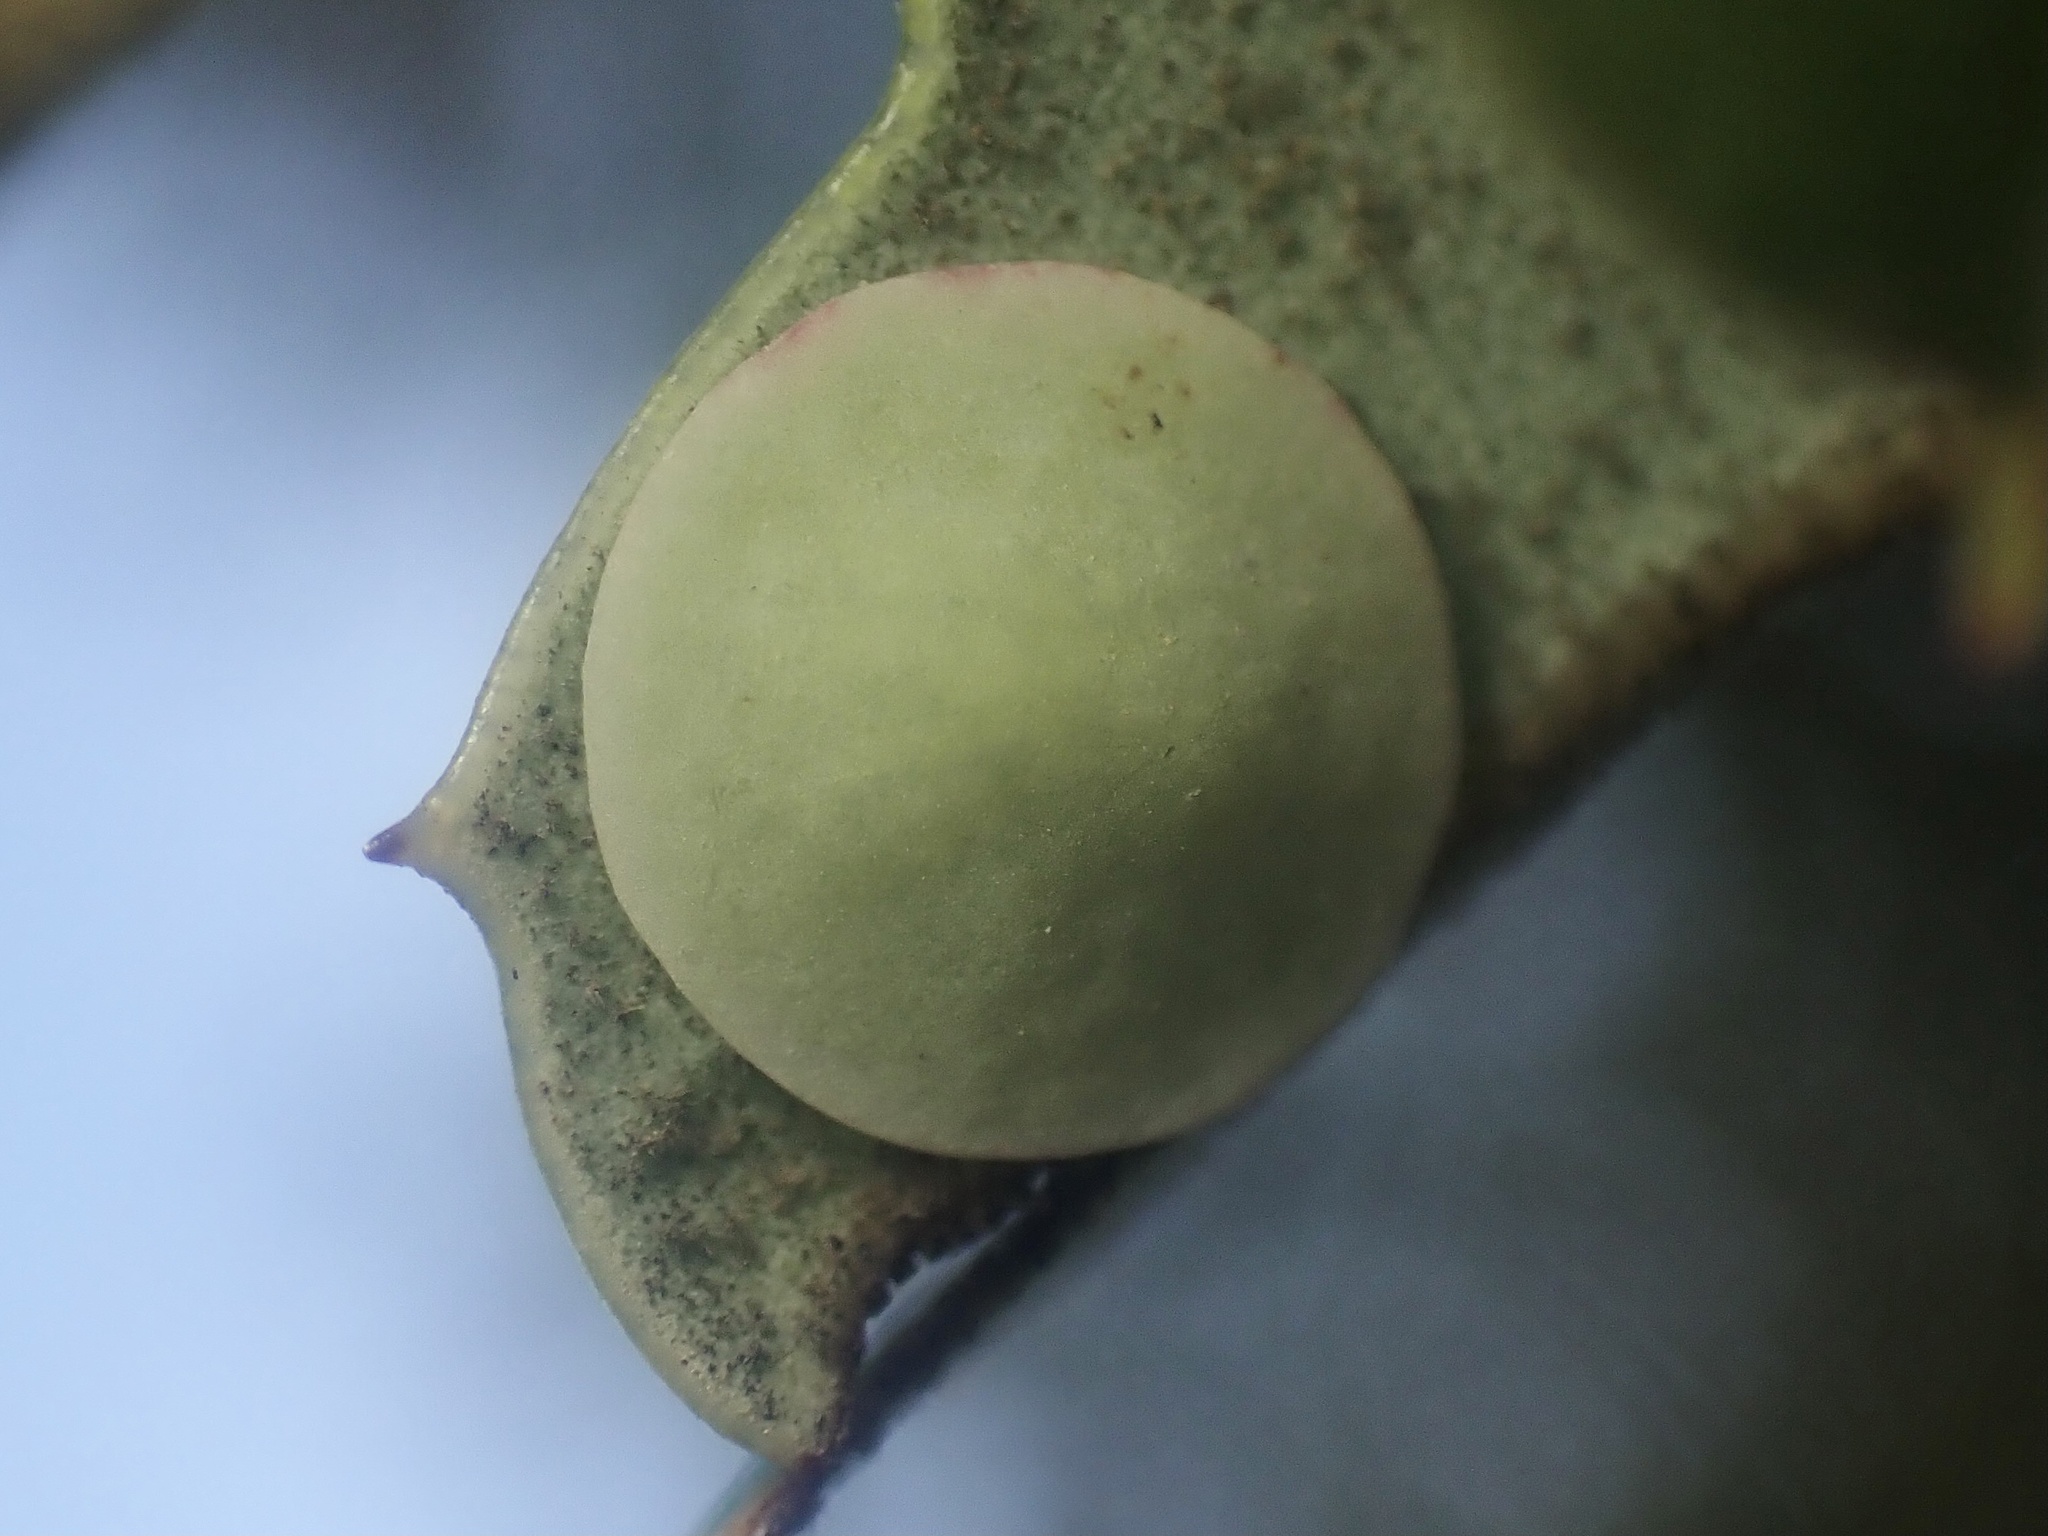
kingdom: Animalia
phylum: Arthropoda
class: Insecta
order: Hymenoptera
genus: Paracraspis
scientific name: Paracraspis
